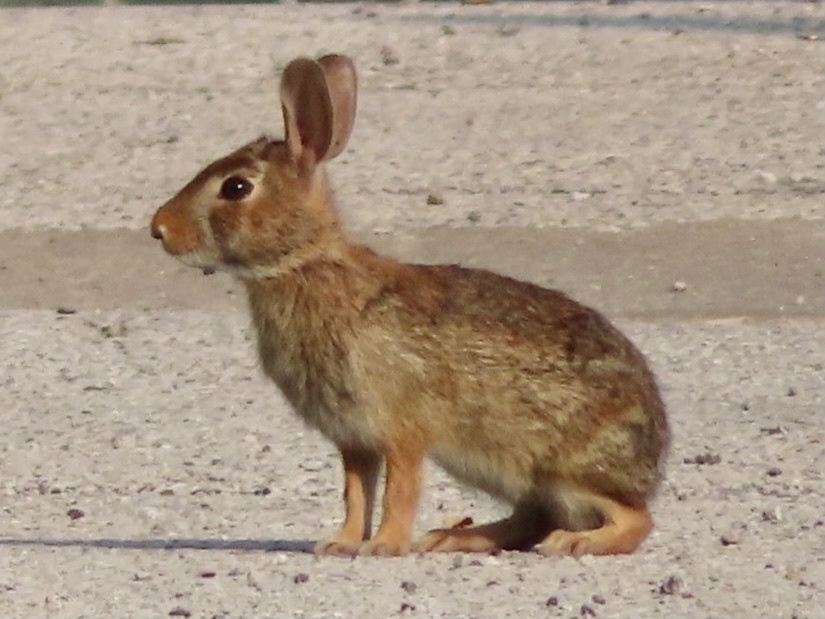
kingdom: Animalia
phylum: Chordata
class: Mammalia
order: Lagomorpha
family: Leporidae
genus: Sylvilagus
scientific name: Sylvilagus floridanus
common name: Eastern cottontail
